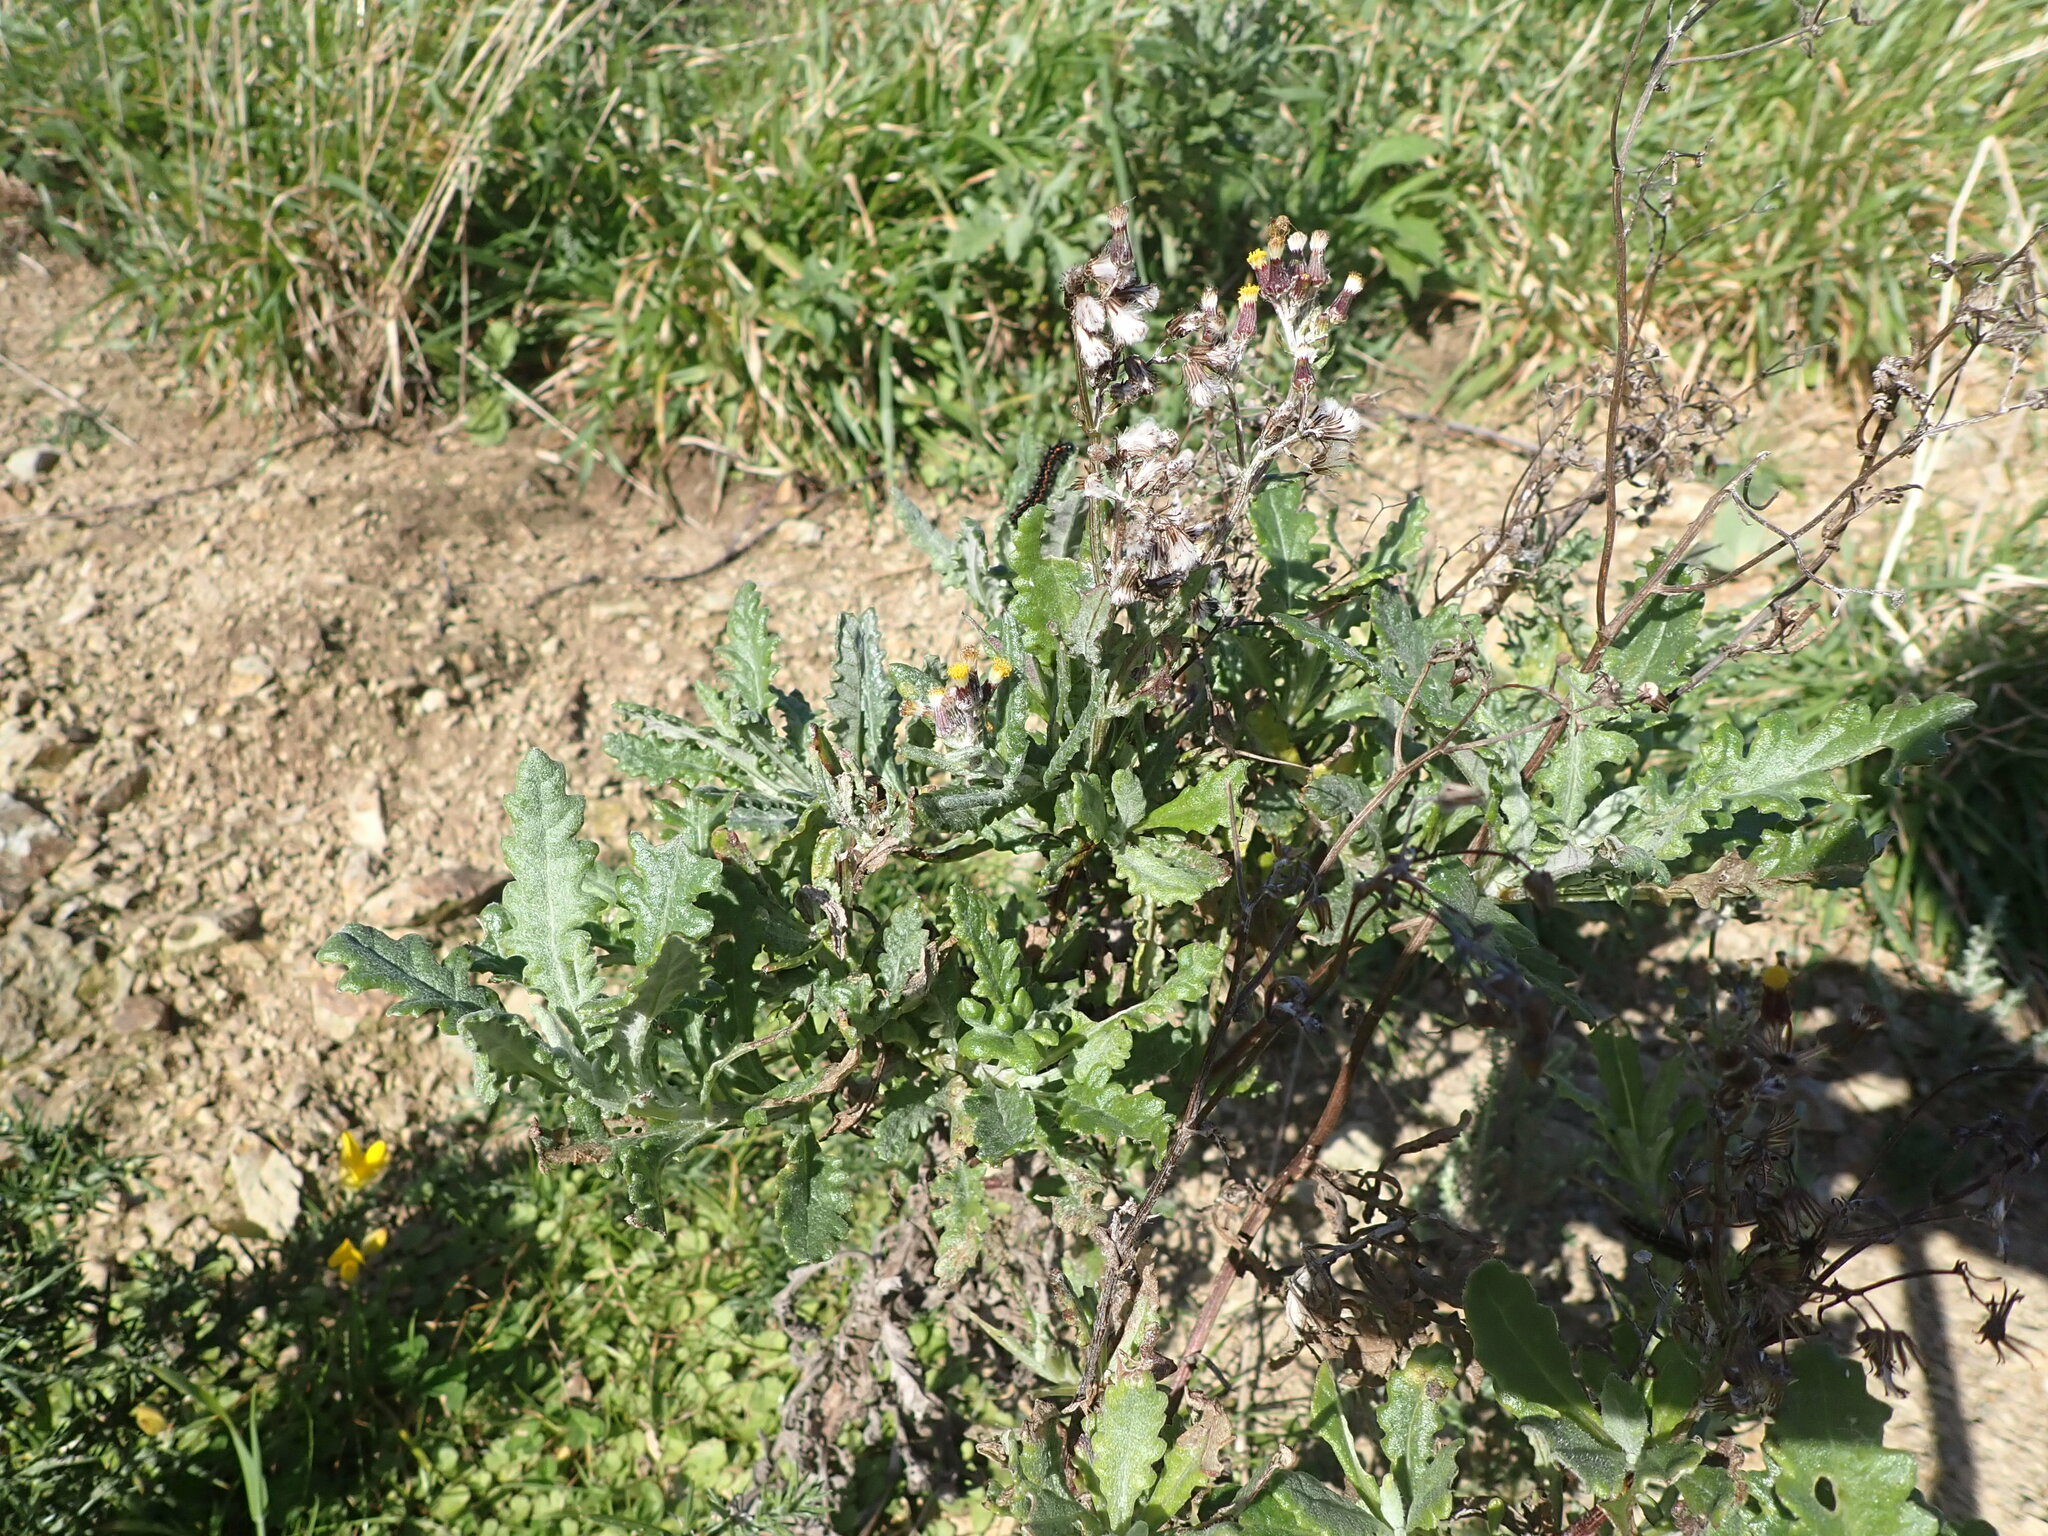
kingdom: Plantae
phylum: Tracheophyta
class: Magnoliopsida
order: Asterales
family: Asteraceae
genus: Senecio
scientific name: Senecio glomeratus
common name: Cutleaf burnweed
